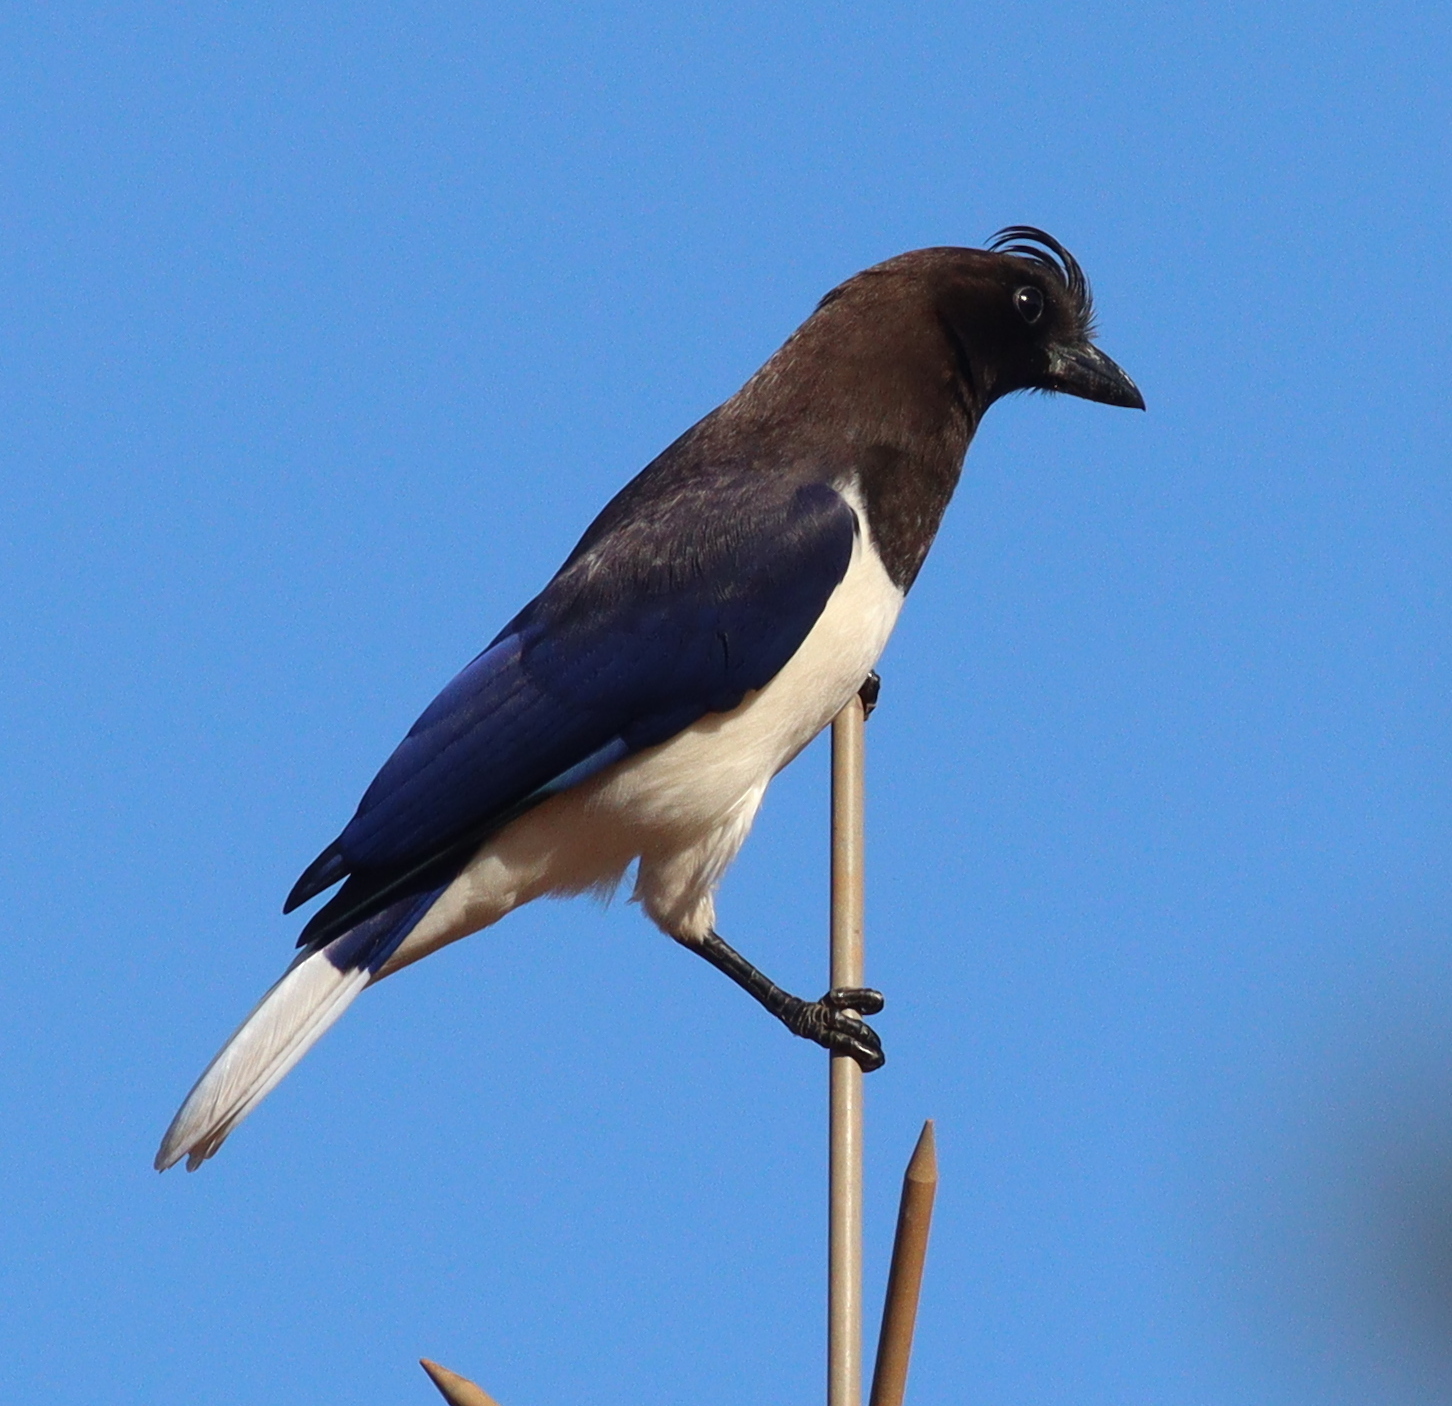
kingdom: Animalia
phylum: Chordata
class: Aves
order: Passeriformes
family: Corvidae
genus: Cyanocorax
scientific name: Cyanocorax cristatellus
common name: Curl-crested jay
